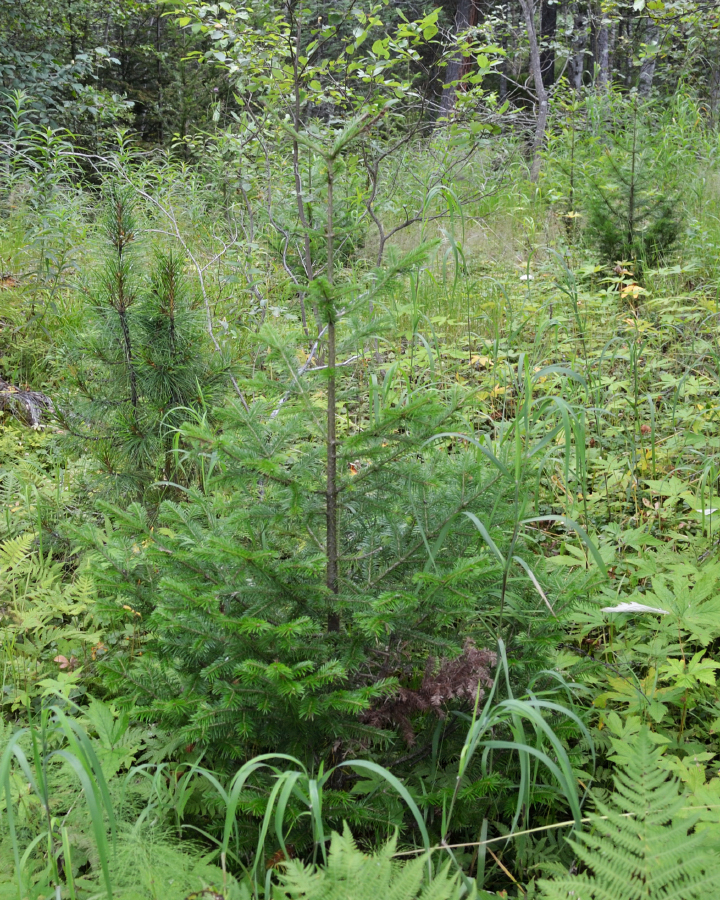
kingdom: Plantae
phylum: Tracheophyta
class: Pinopsida
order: Pinales
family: Pinaceae
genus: Abies
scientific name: Abies sibirica
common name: Siberian fir
